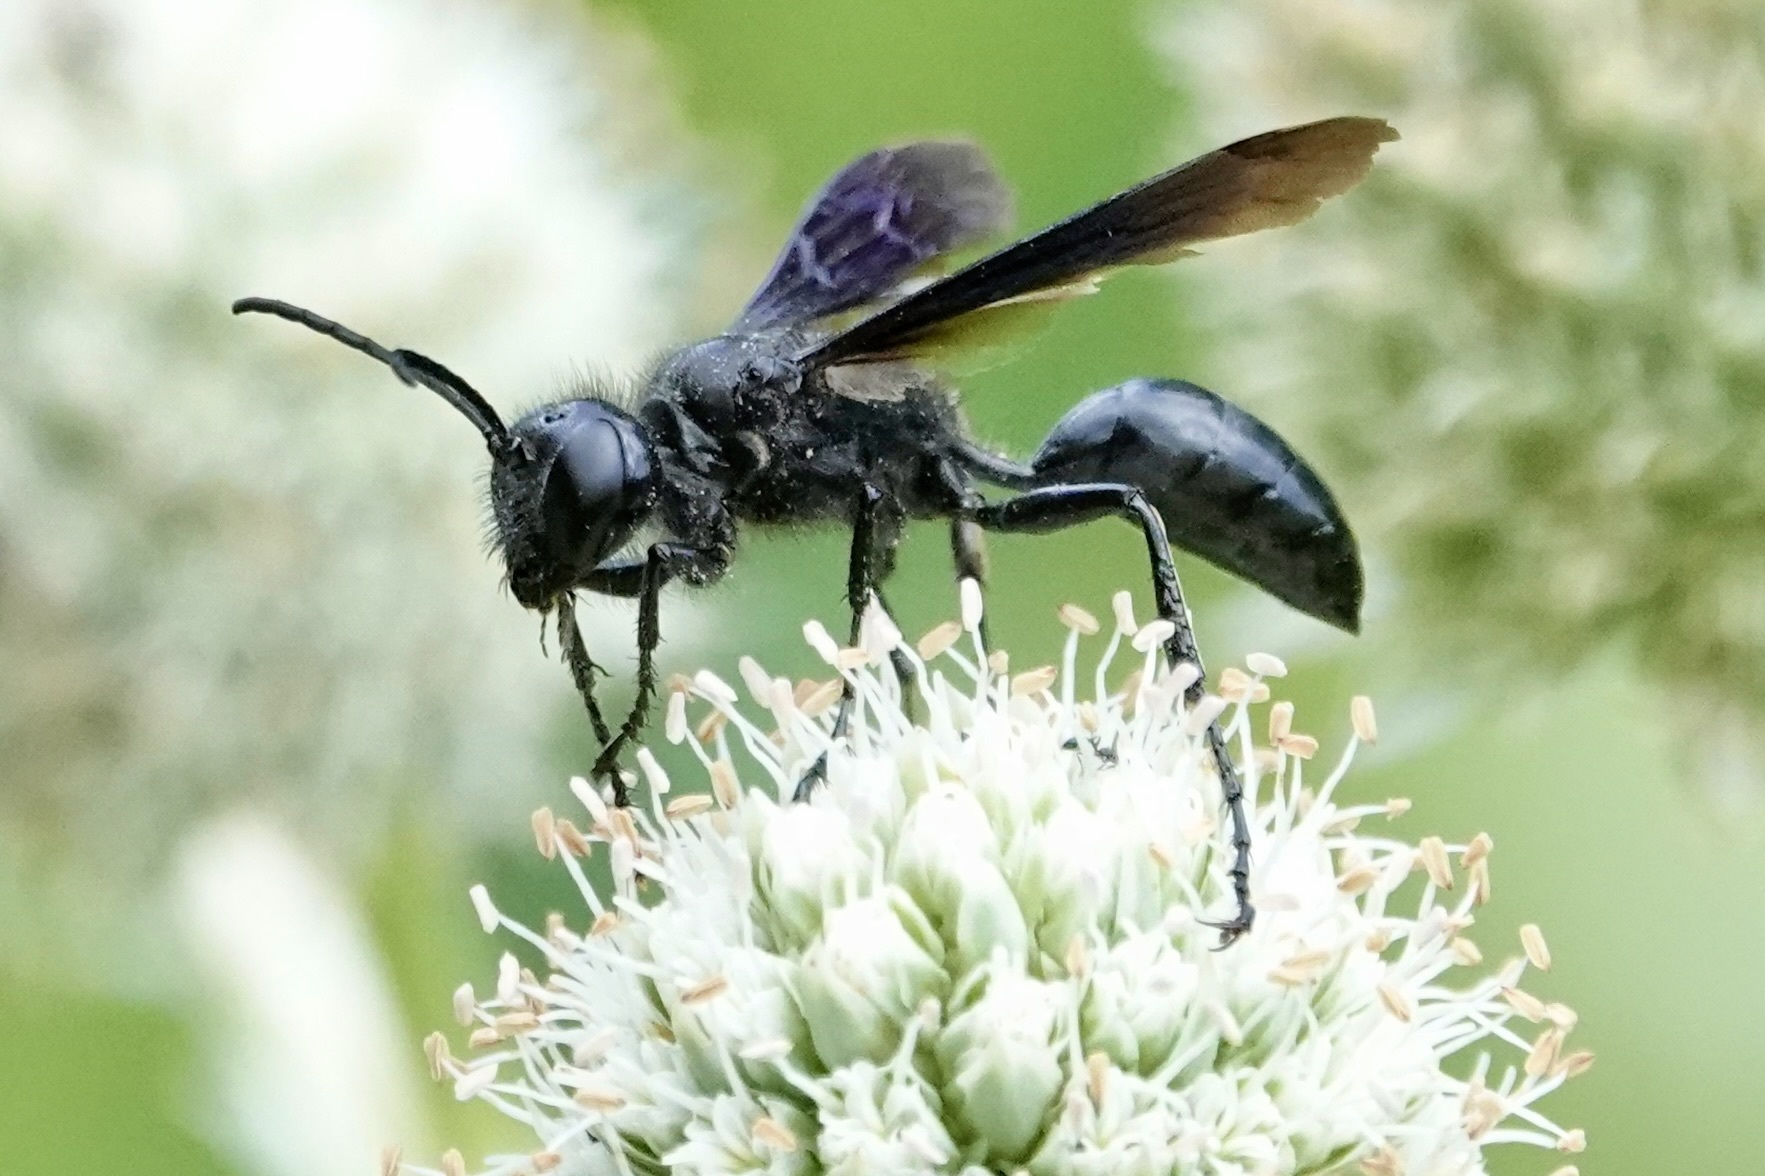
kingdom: Animalia
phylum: Arthropoda
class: Insecta
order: Hymenoptera
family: Sphecidae
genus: Isodontia
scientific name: Isodontia philadelphica
